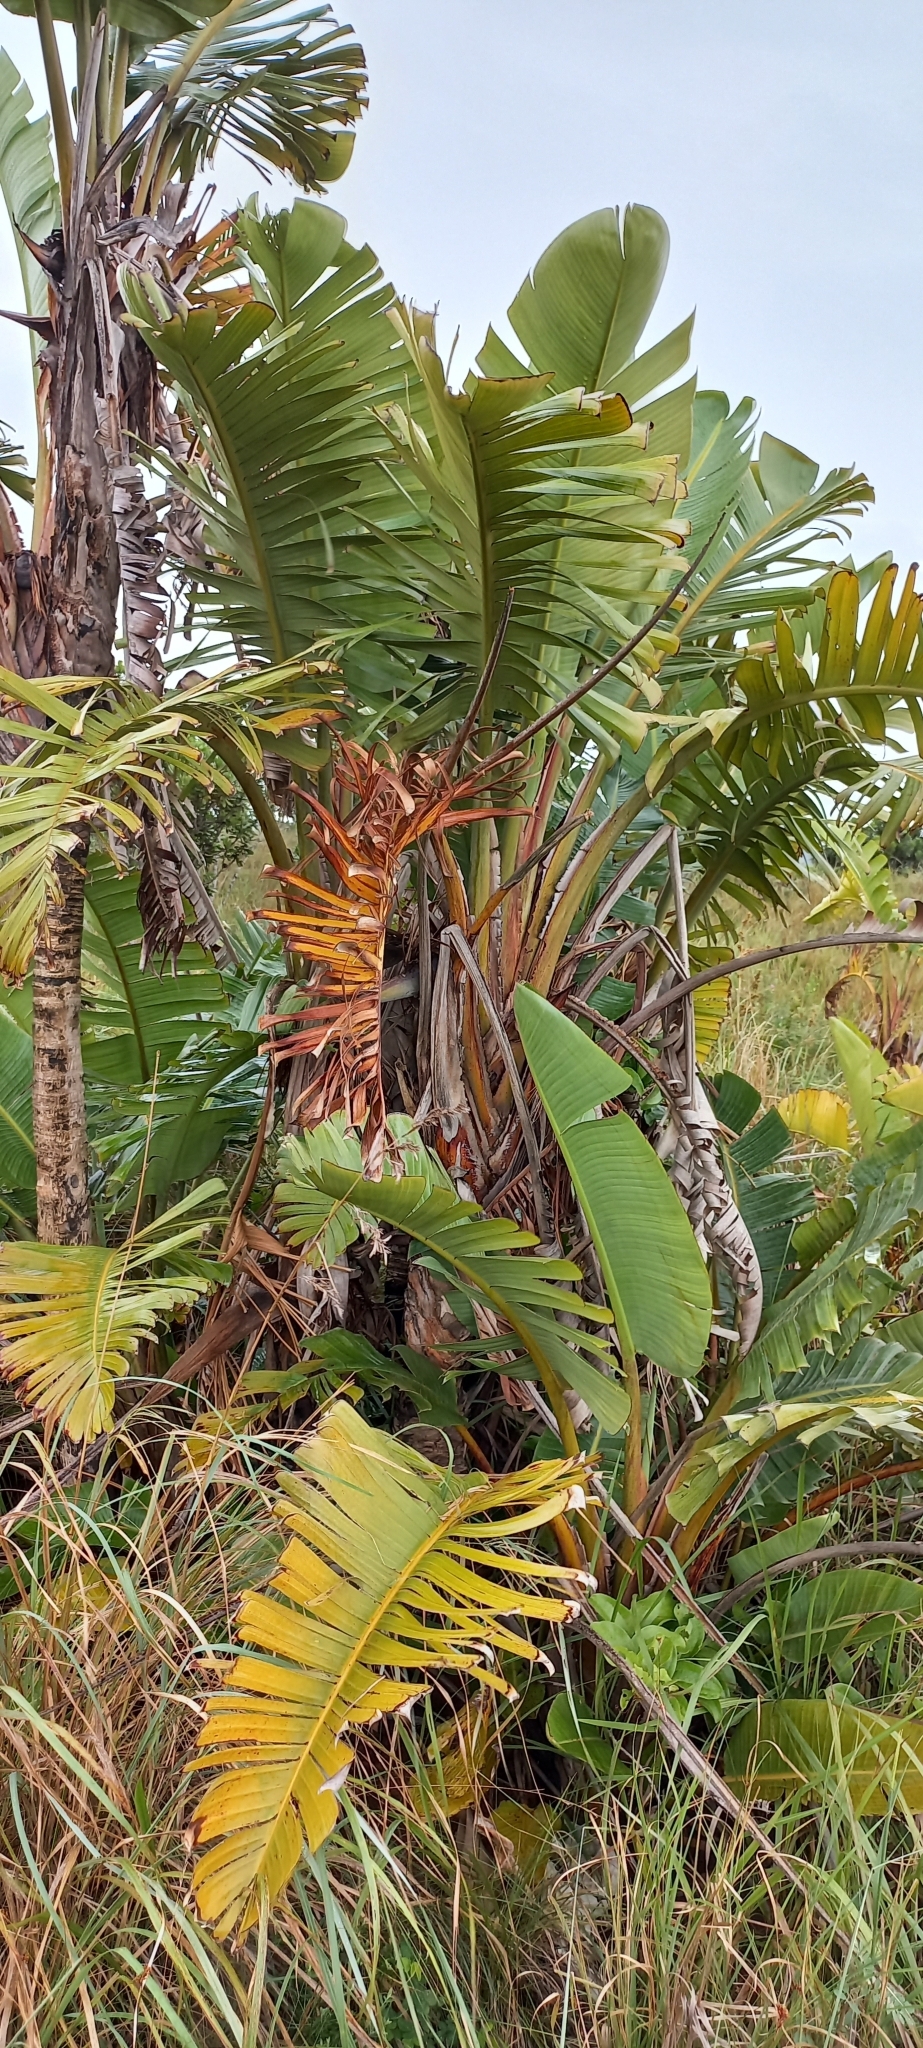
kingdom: Plantae
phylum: Tracheophyta
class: Liliopsida
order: Zingiberales
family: Strelitziaceae
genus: Strelitzia
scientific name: Strelitzia nicolai
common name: Bird-of-paradise tree
